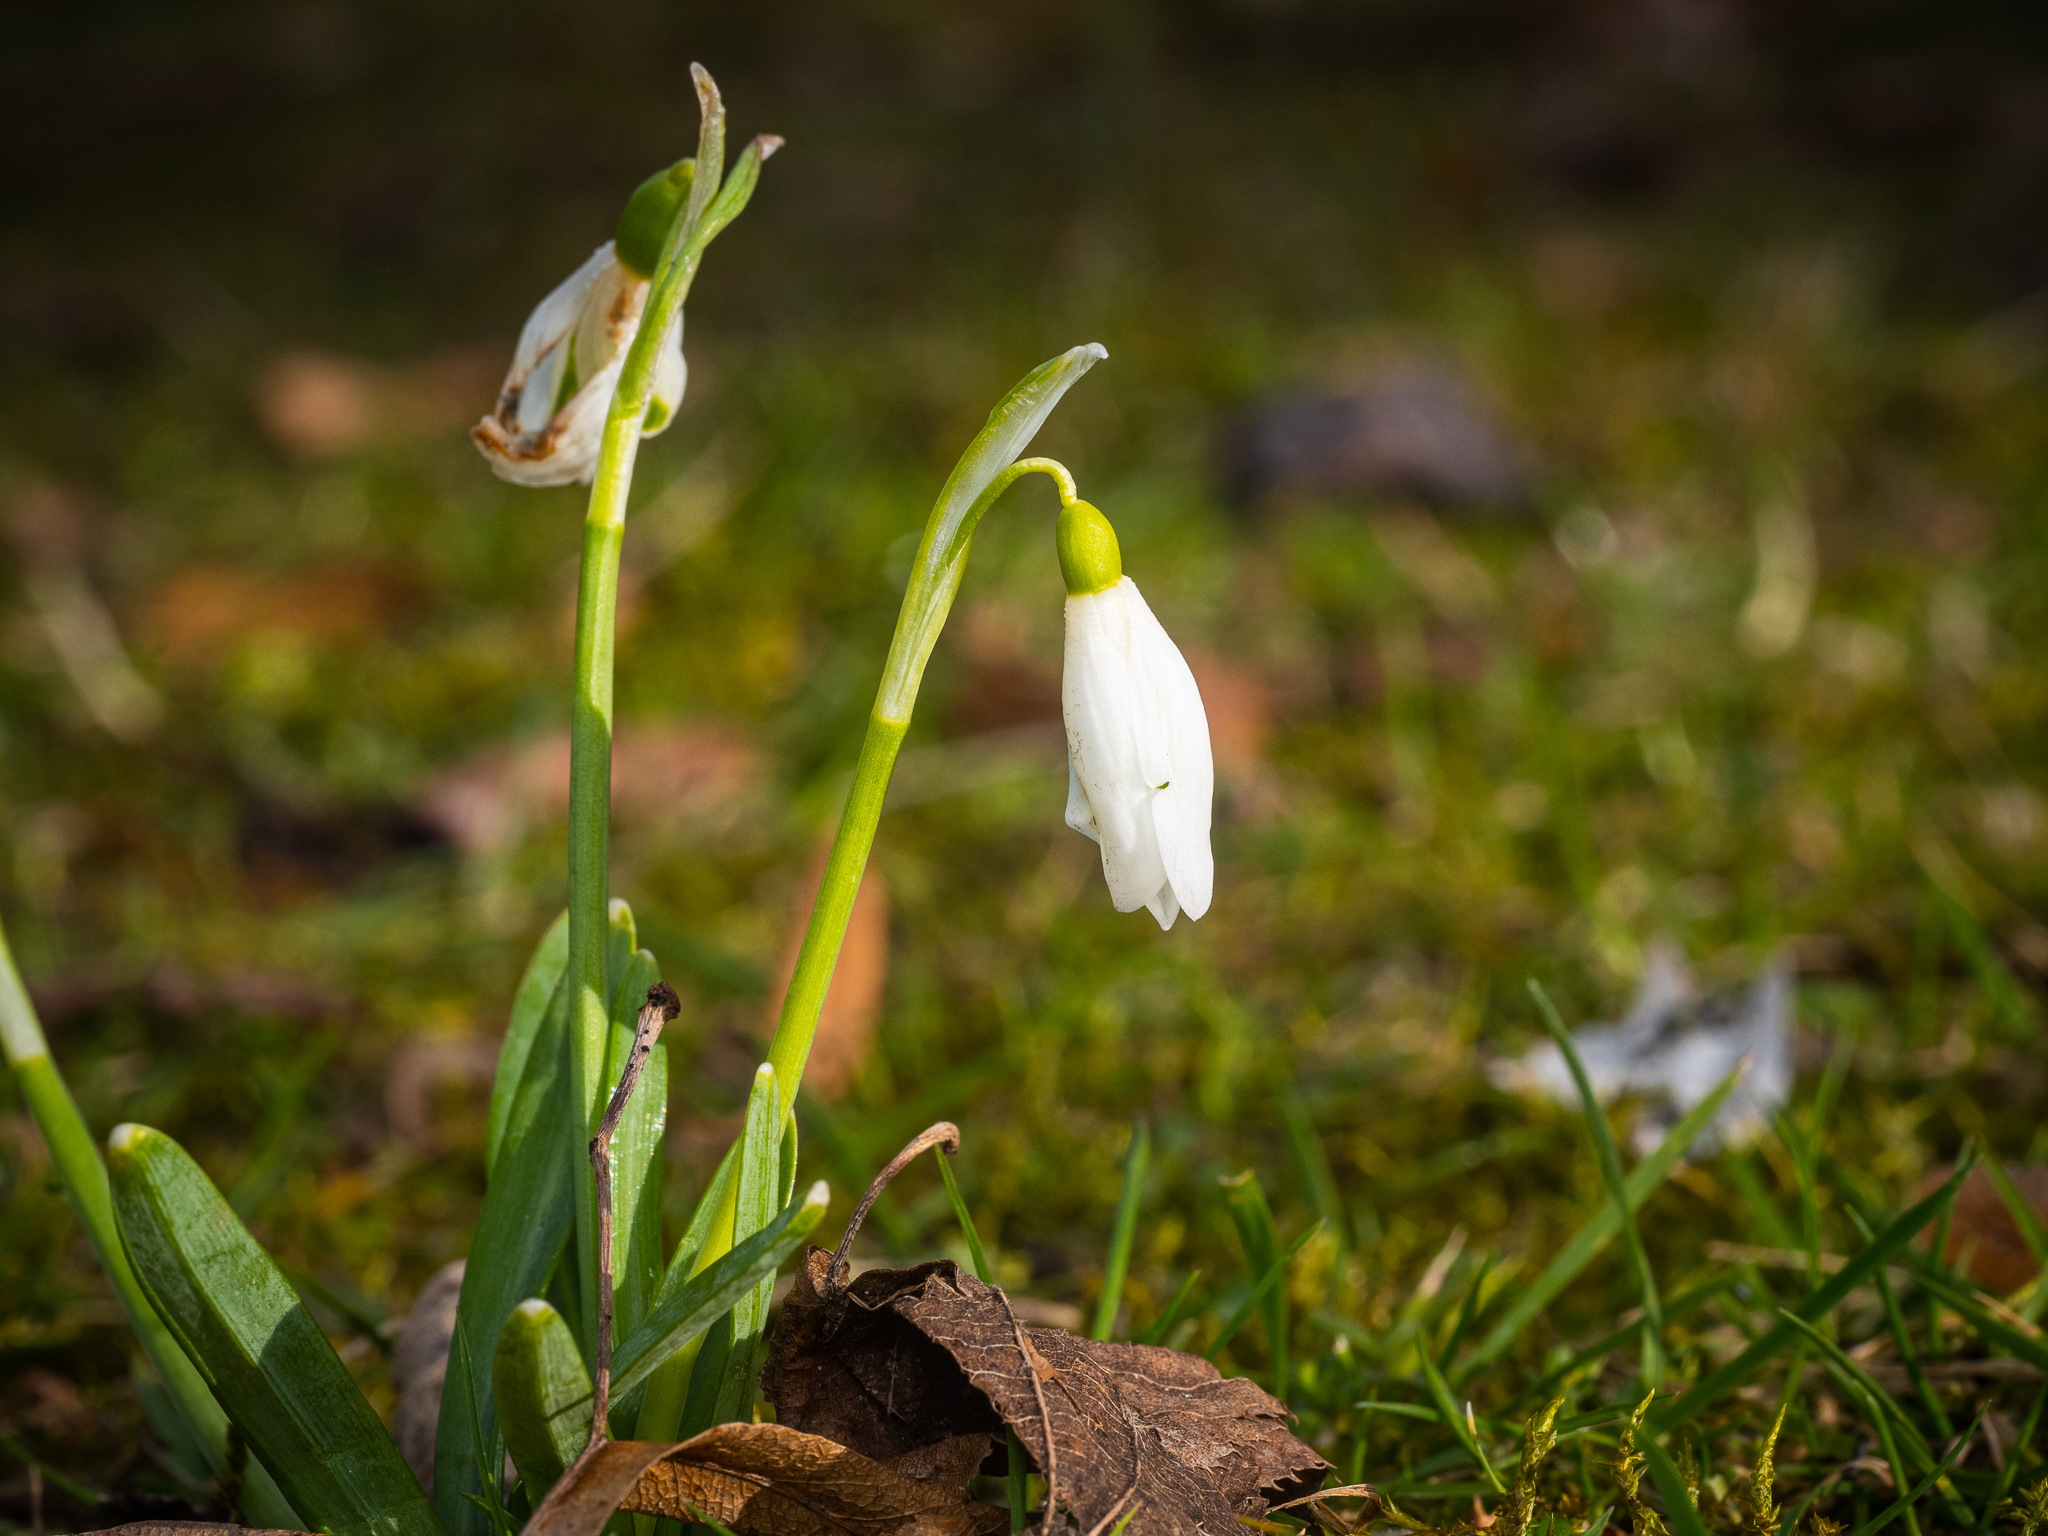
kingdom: Plantae
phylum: Tracheophyta
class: Liliopsida
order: Asparagales
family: Amaryllidaceae
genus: Galanthus
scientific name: Galanthus nivalis
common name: Snowdrop
